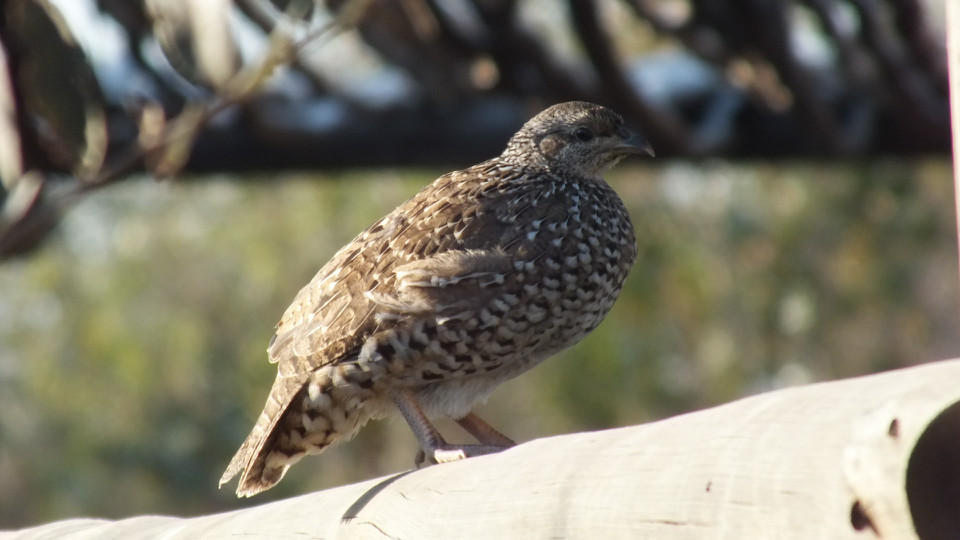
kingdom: Animalia
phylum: Chordata
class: Aves
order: Galliformes
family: Phasianidae
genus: Ortygornis
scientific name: Ortygornis sephaena
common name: Crested francolin
